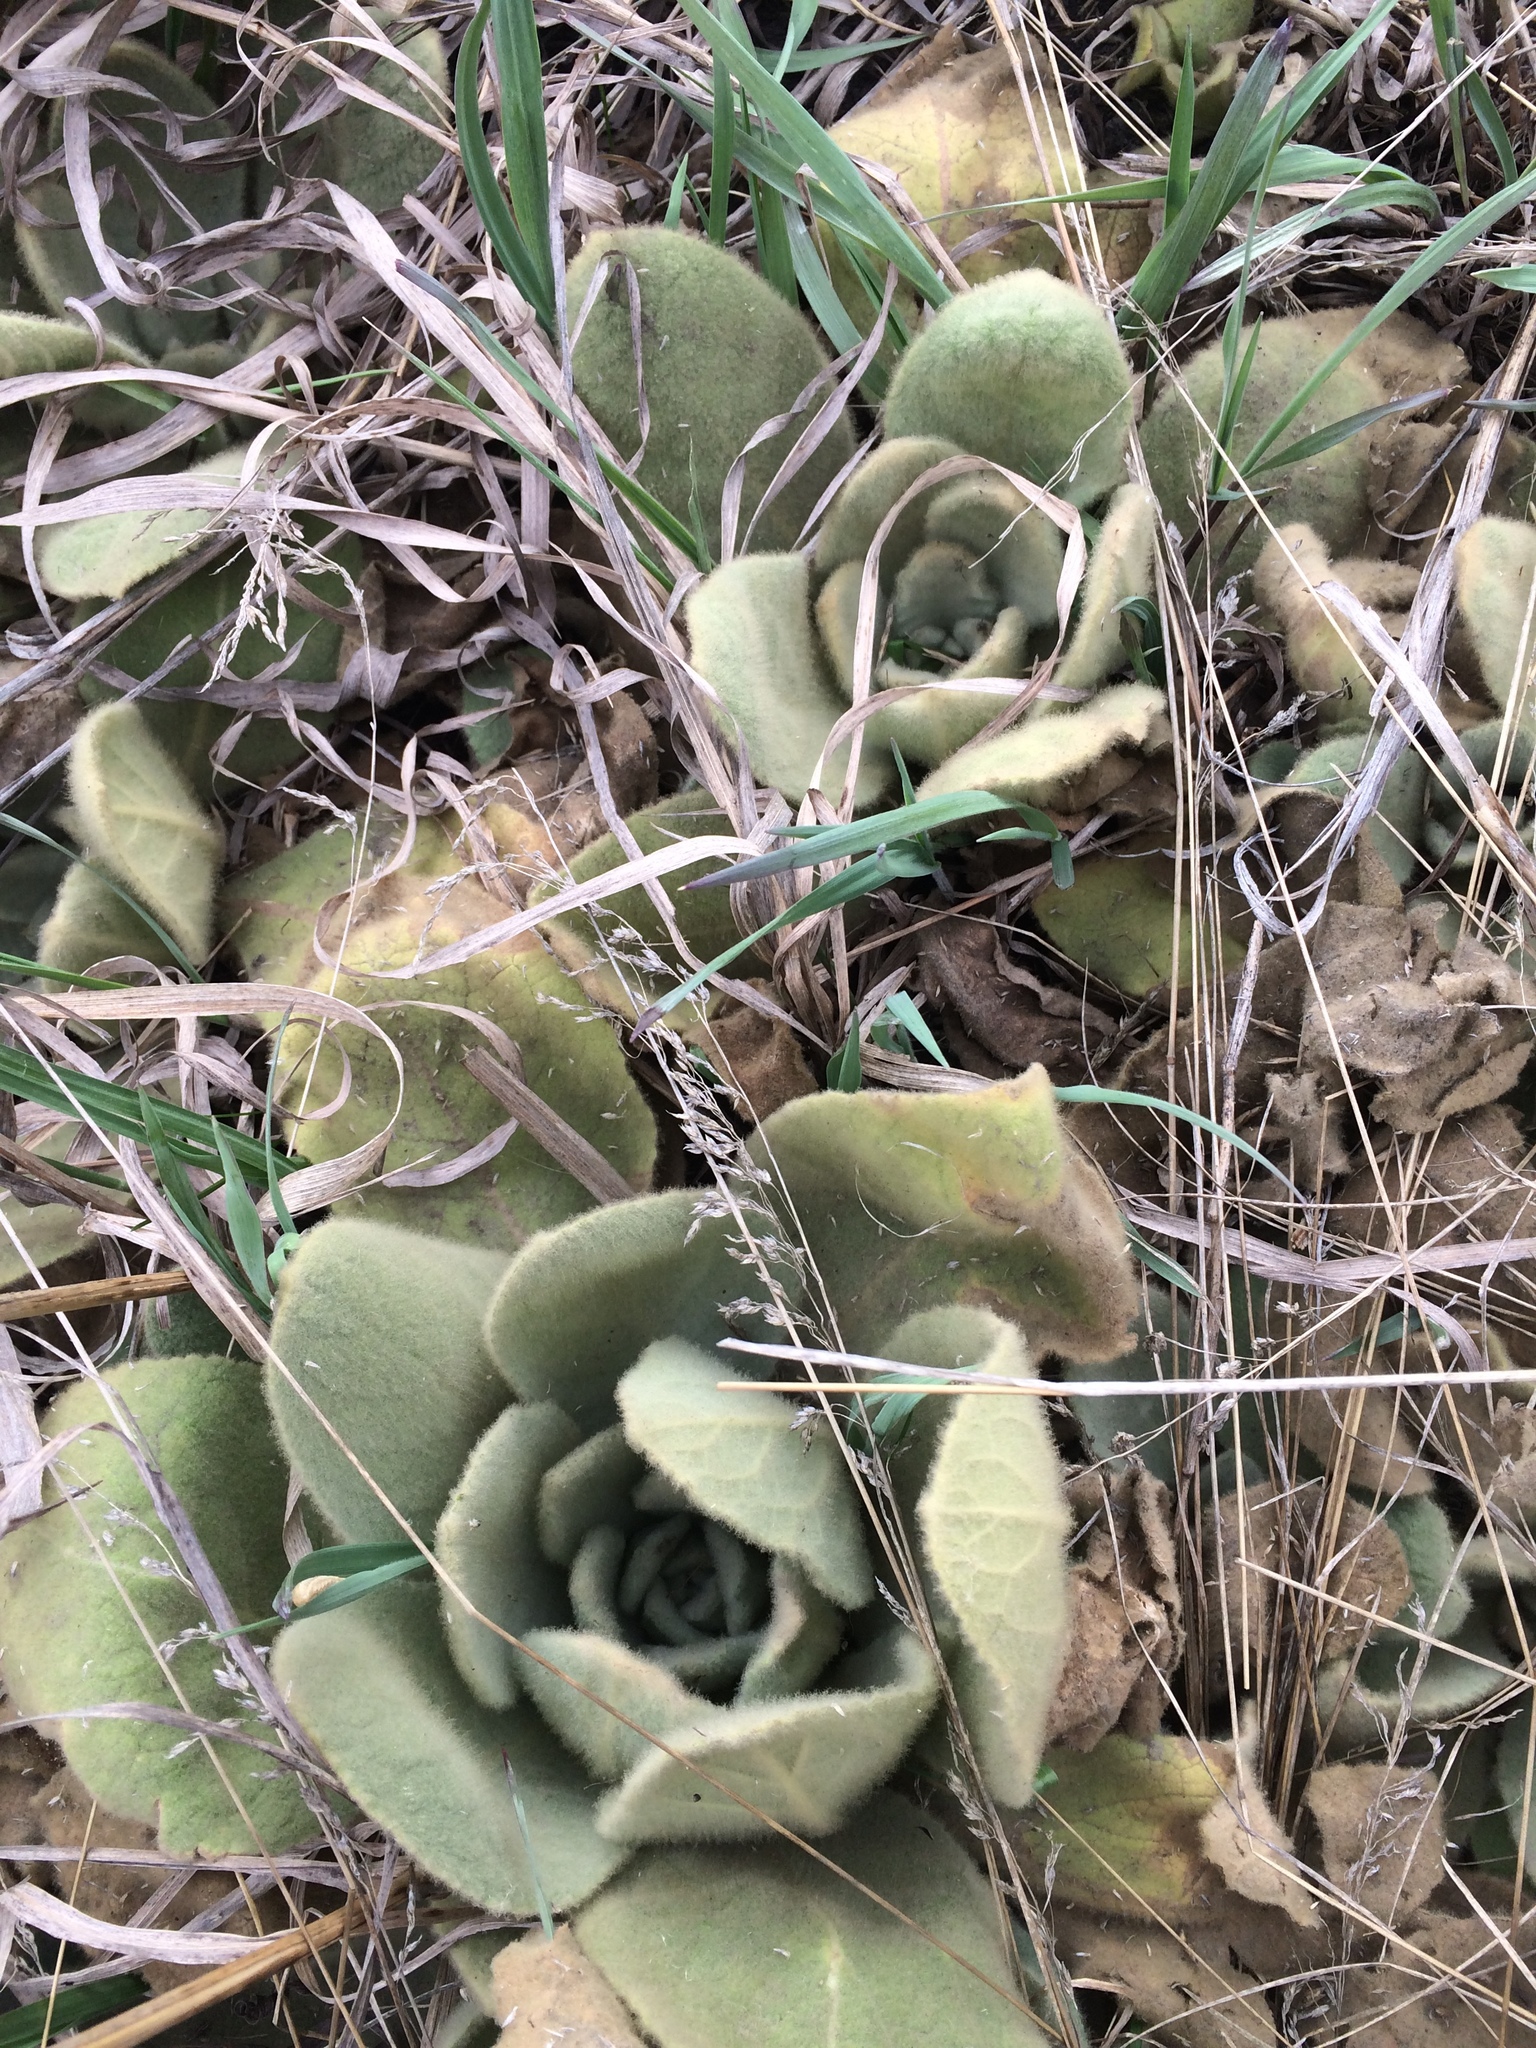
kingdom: Plantae
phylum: Tracheophyta
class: Magnoliopsida
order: Lamiales
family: Scrophulariaceae
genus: Verbascum
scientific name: Verbascum thapsus
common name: Common mullein
